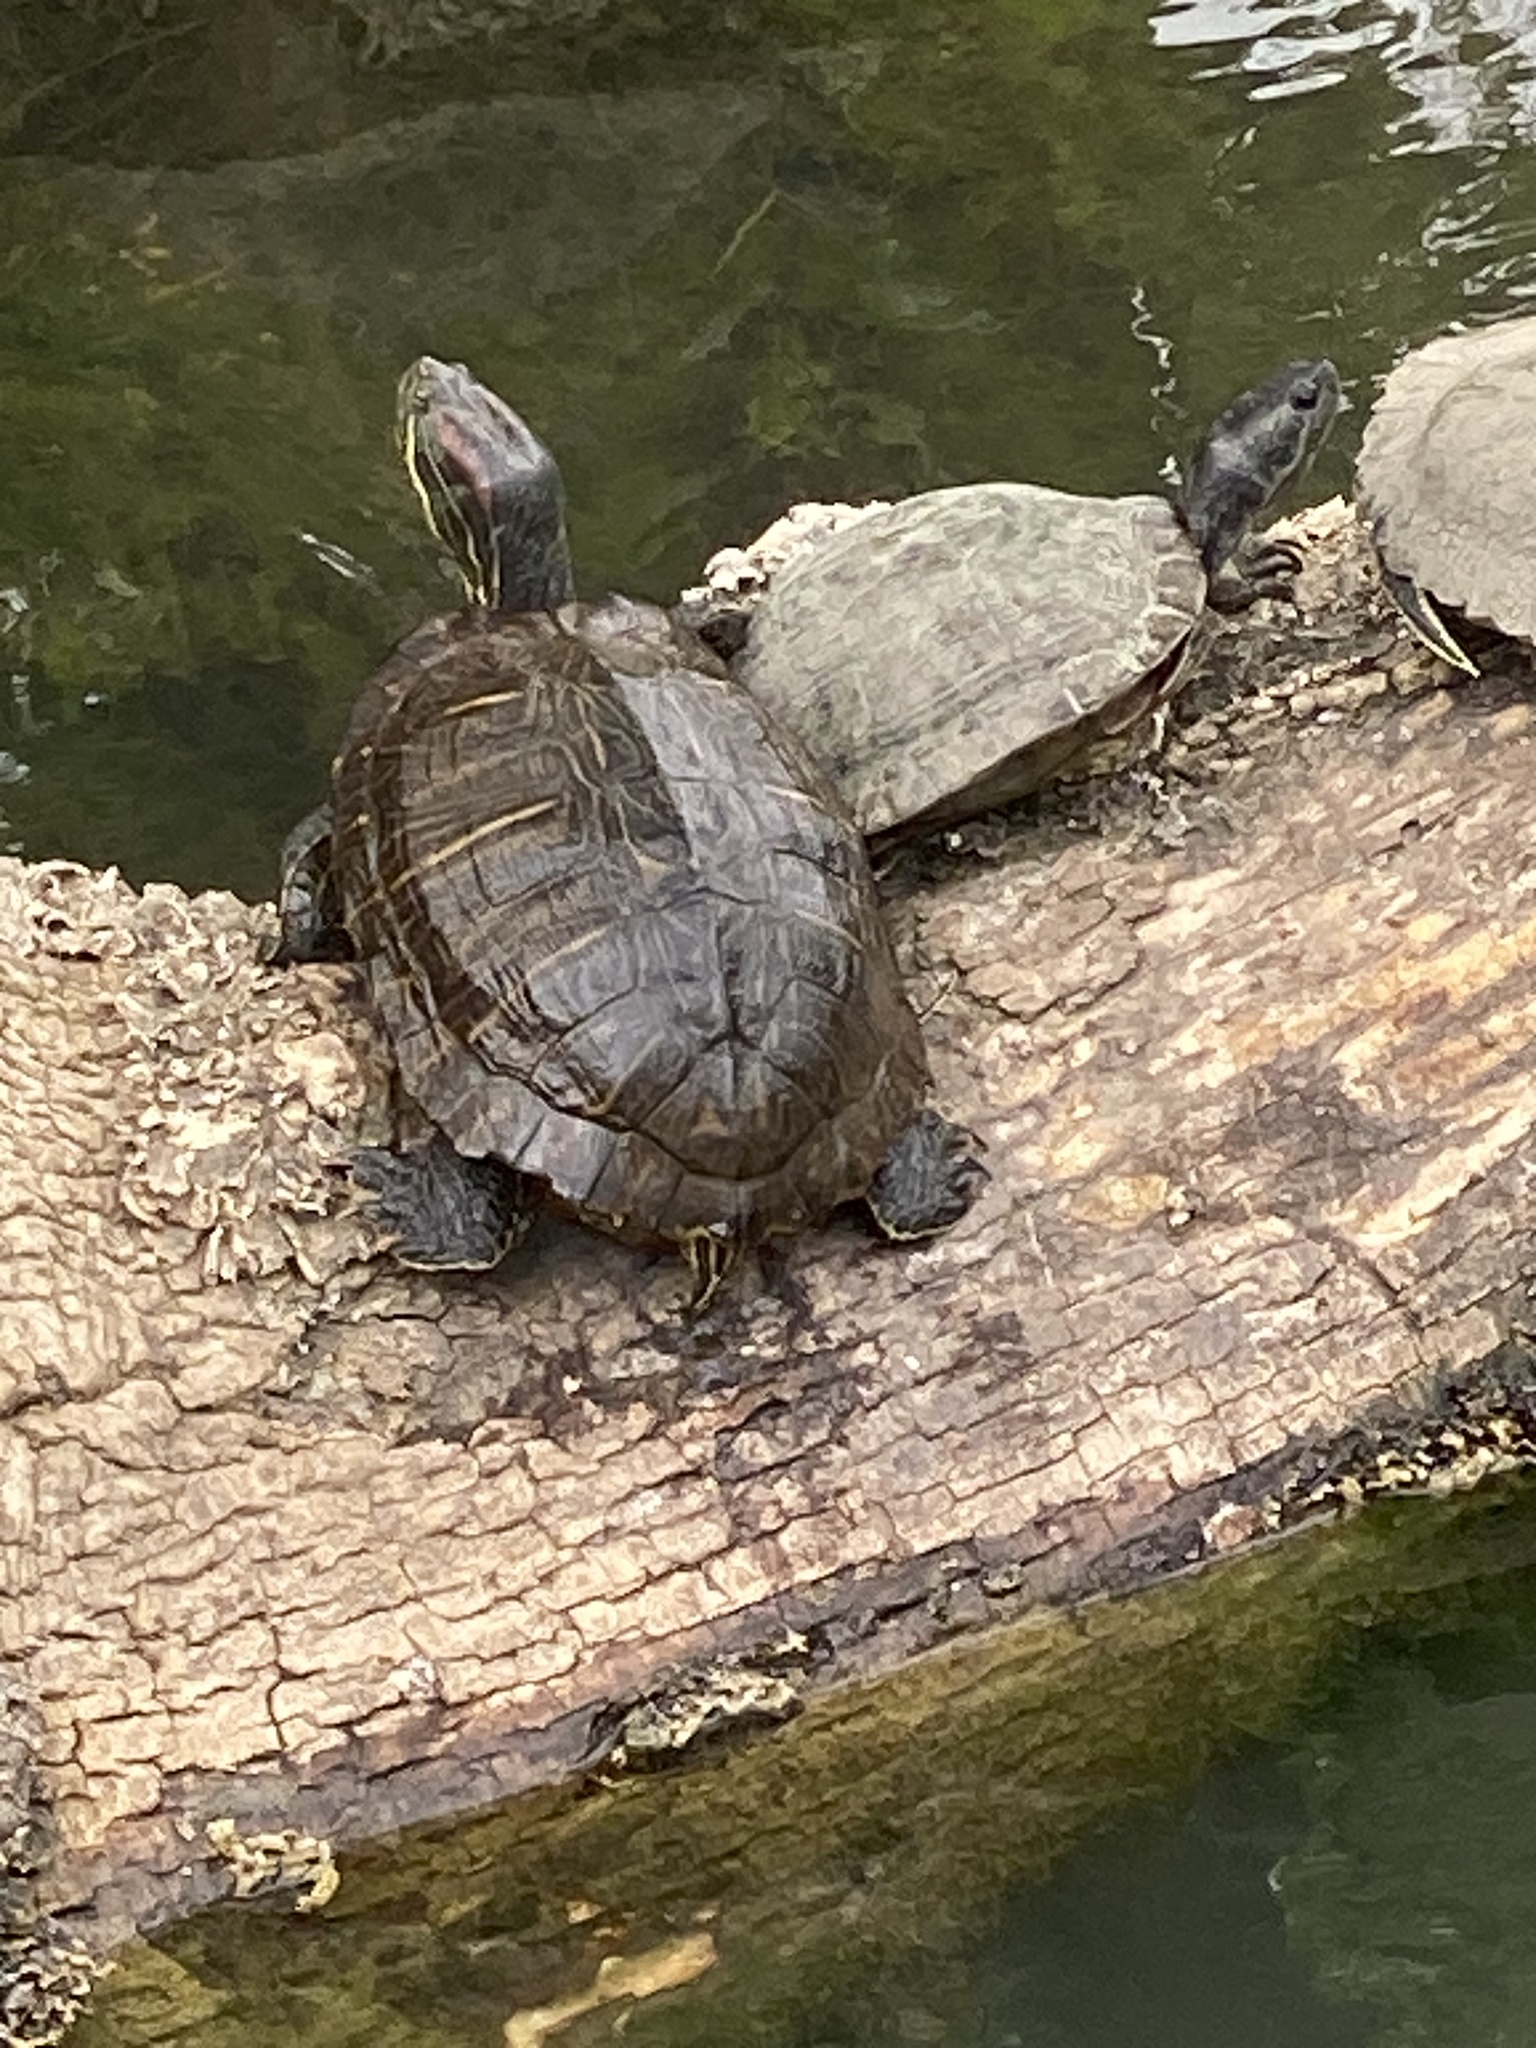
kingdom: Animalia
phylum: Chordata
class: Testudines
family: Emydidae
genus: Trachemys
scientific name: Trachemys scripta
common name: Slider
